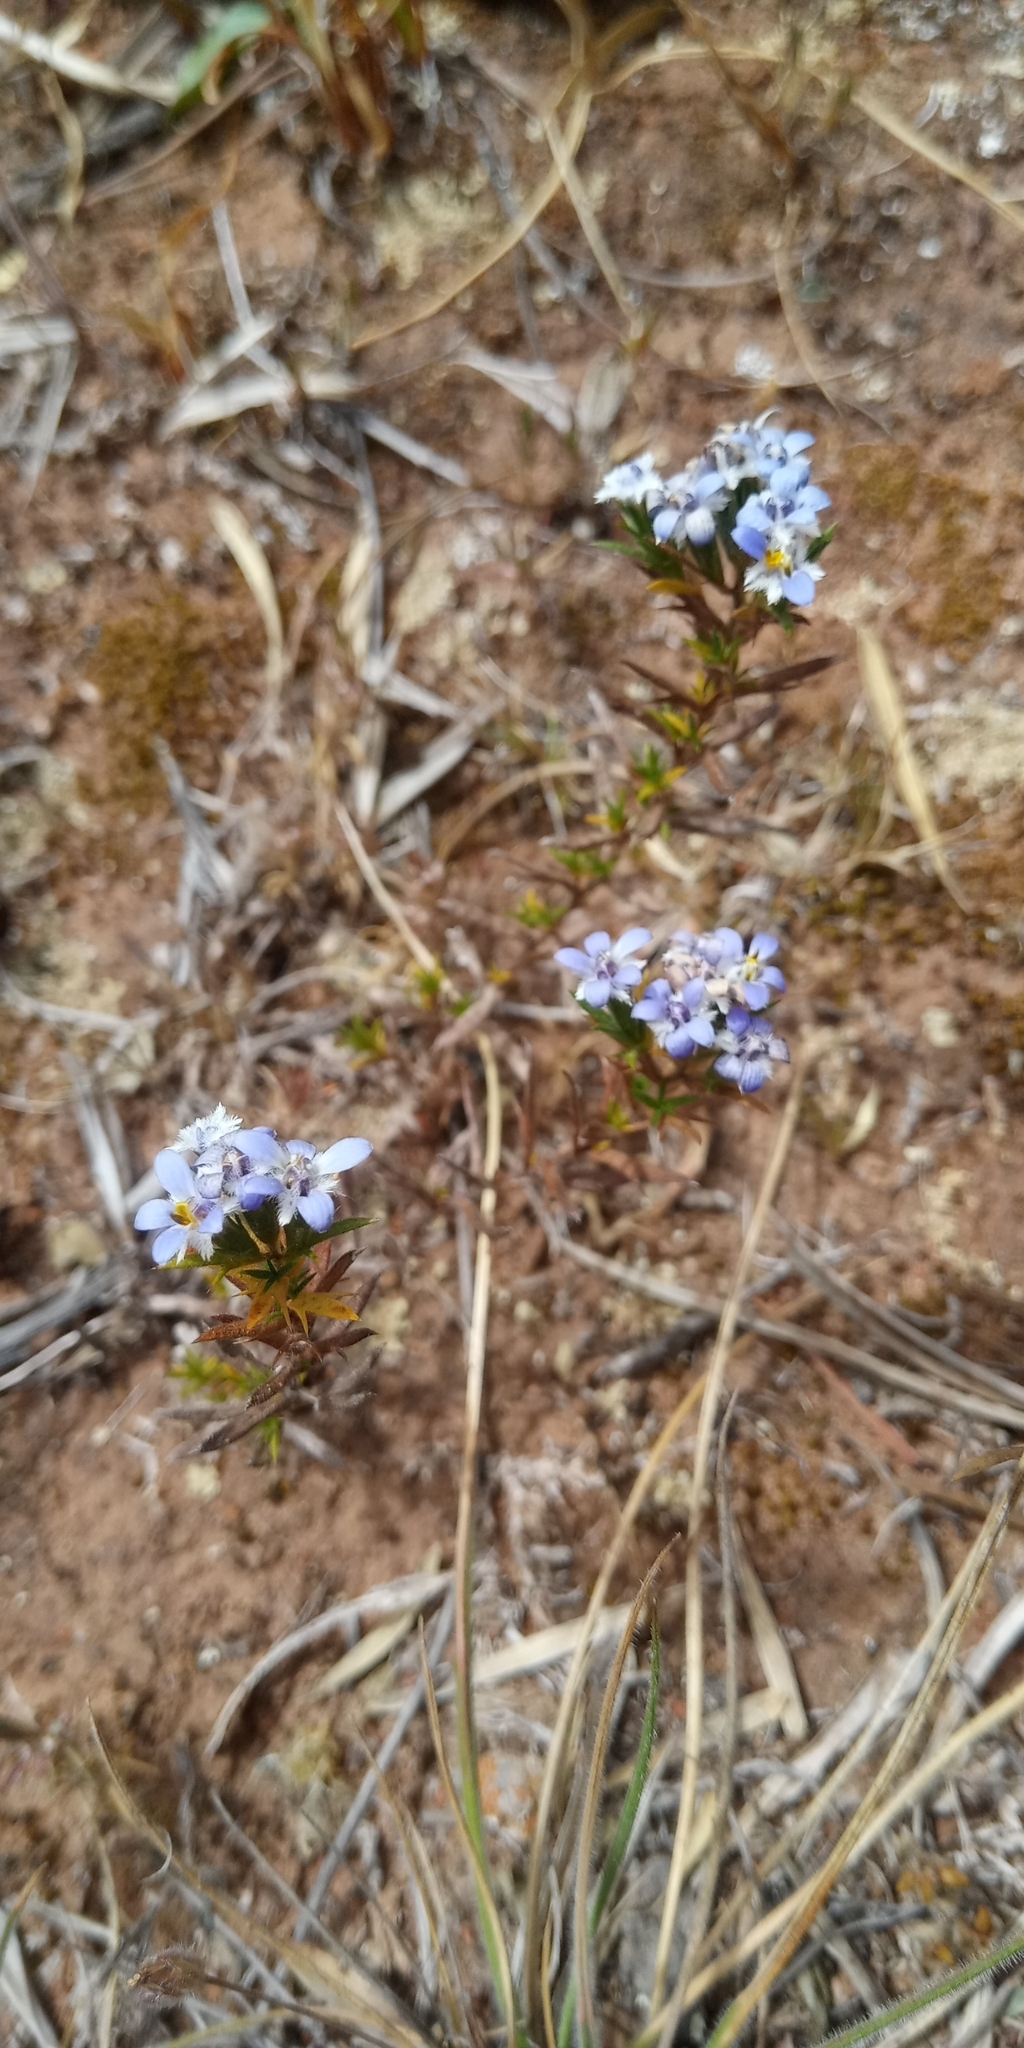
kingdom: Plantae
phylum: Tracheophyta
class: Magnoliopsida
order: Asterales
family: Asteraceae
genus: Triptilion
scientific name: Triptilion spinosum
